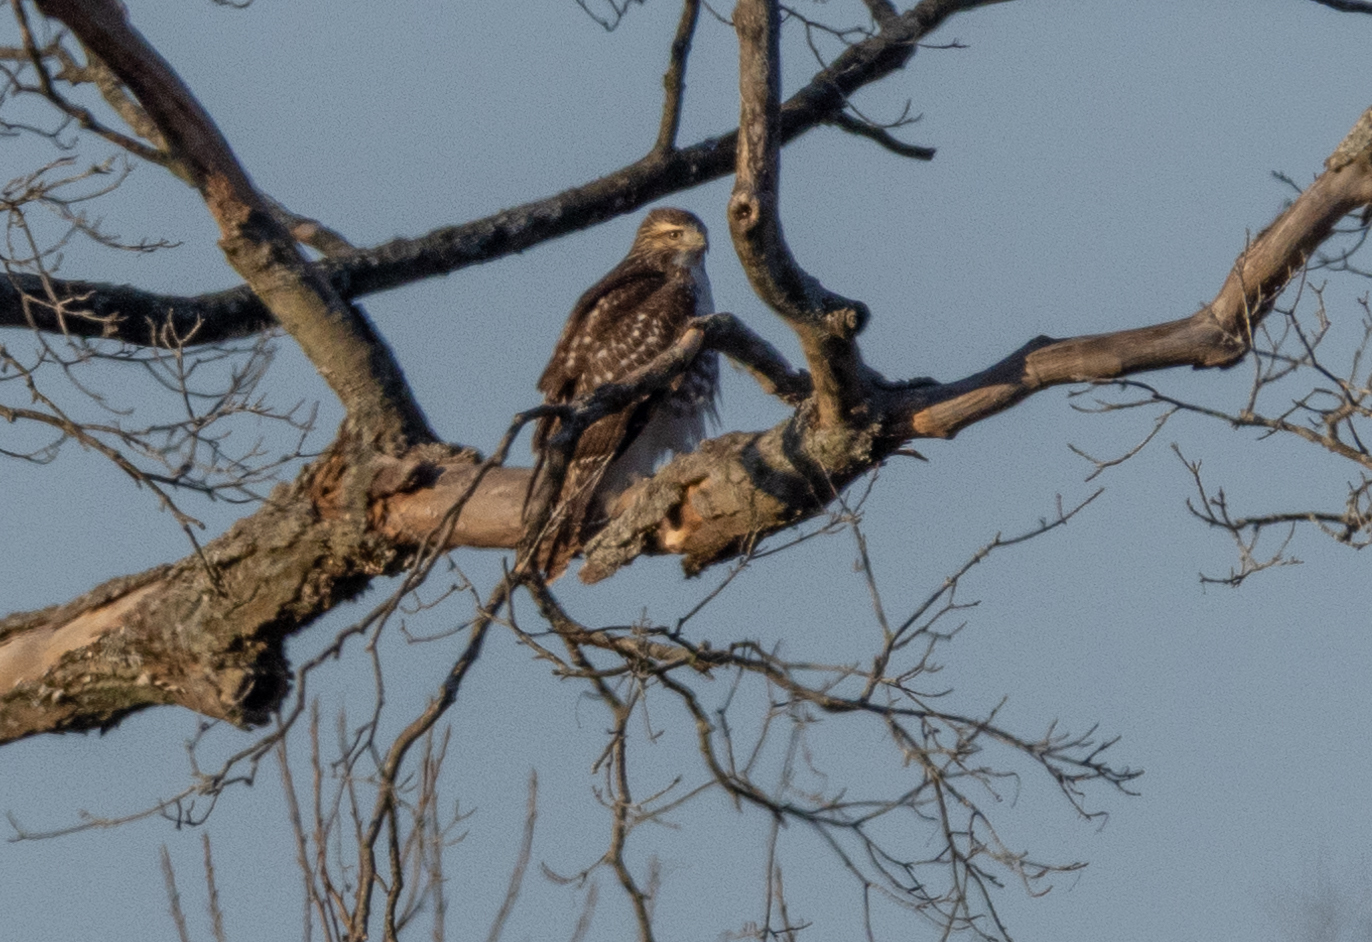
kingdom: Animalia
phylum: Chordata
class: Aves
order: Accipitriformes
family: Accipitridae
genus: Buteo
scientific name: Buteo jamaicensis
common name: Red-tailed hawk
